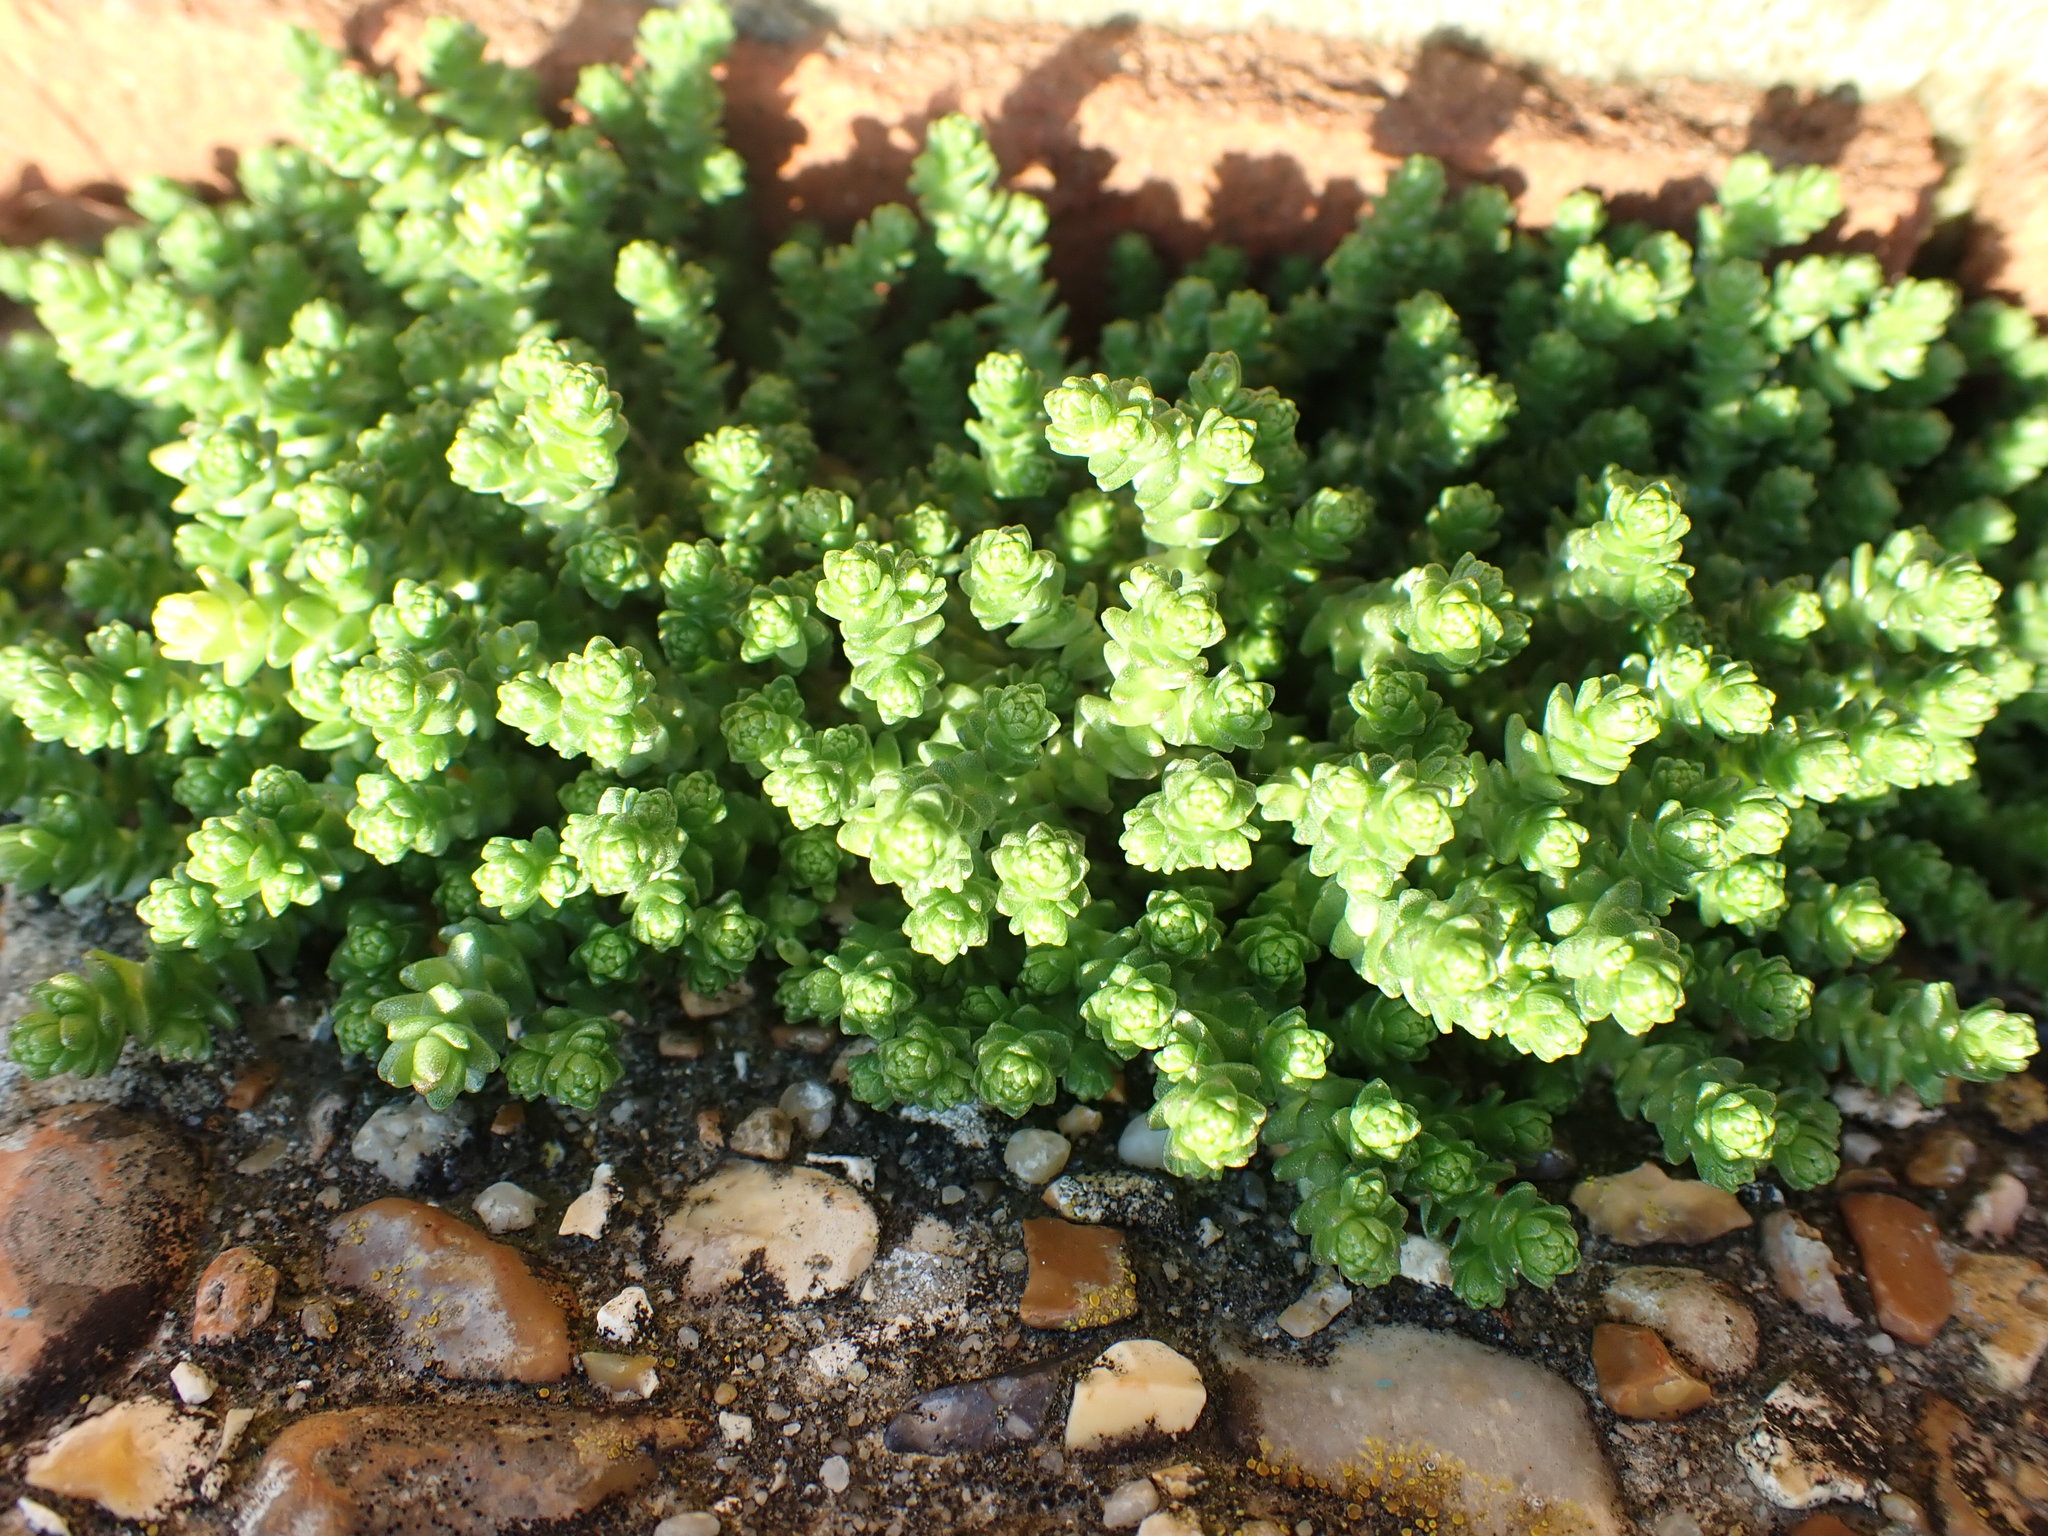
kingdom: Plantae
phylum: Tracheophyta
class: Magnoliopsida
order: Saxifragales
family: Crassulaceae
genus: Sedum
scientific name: Sedum acre
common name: Biting stonecrop
